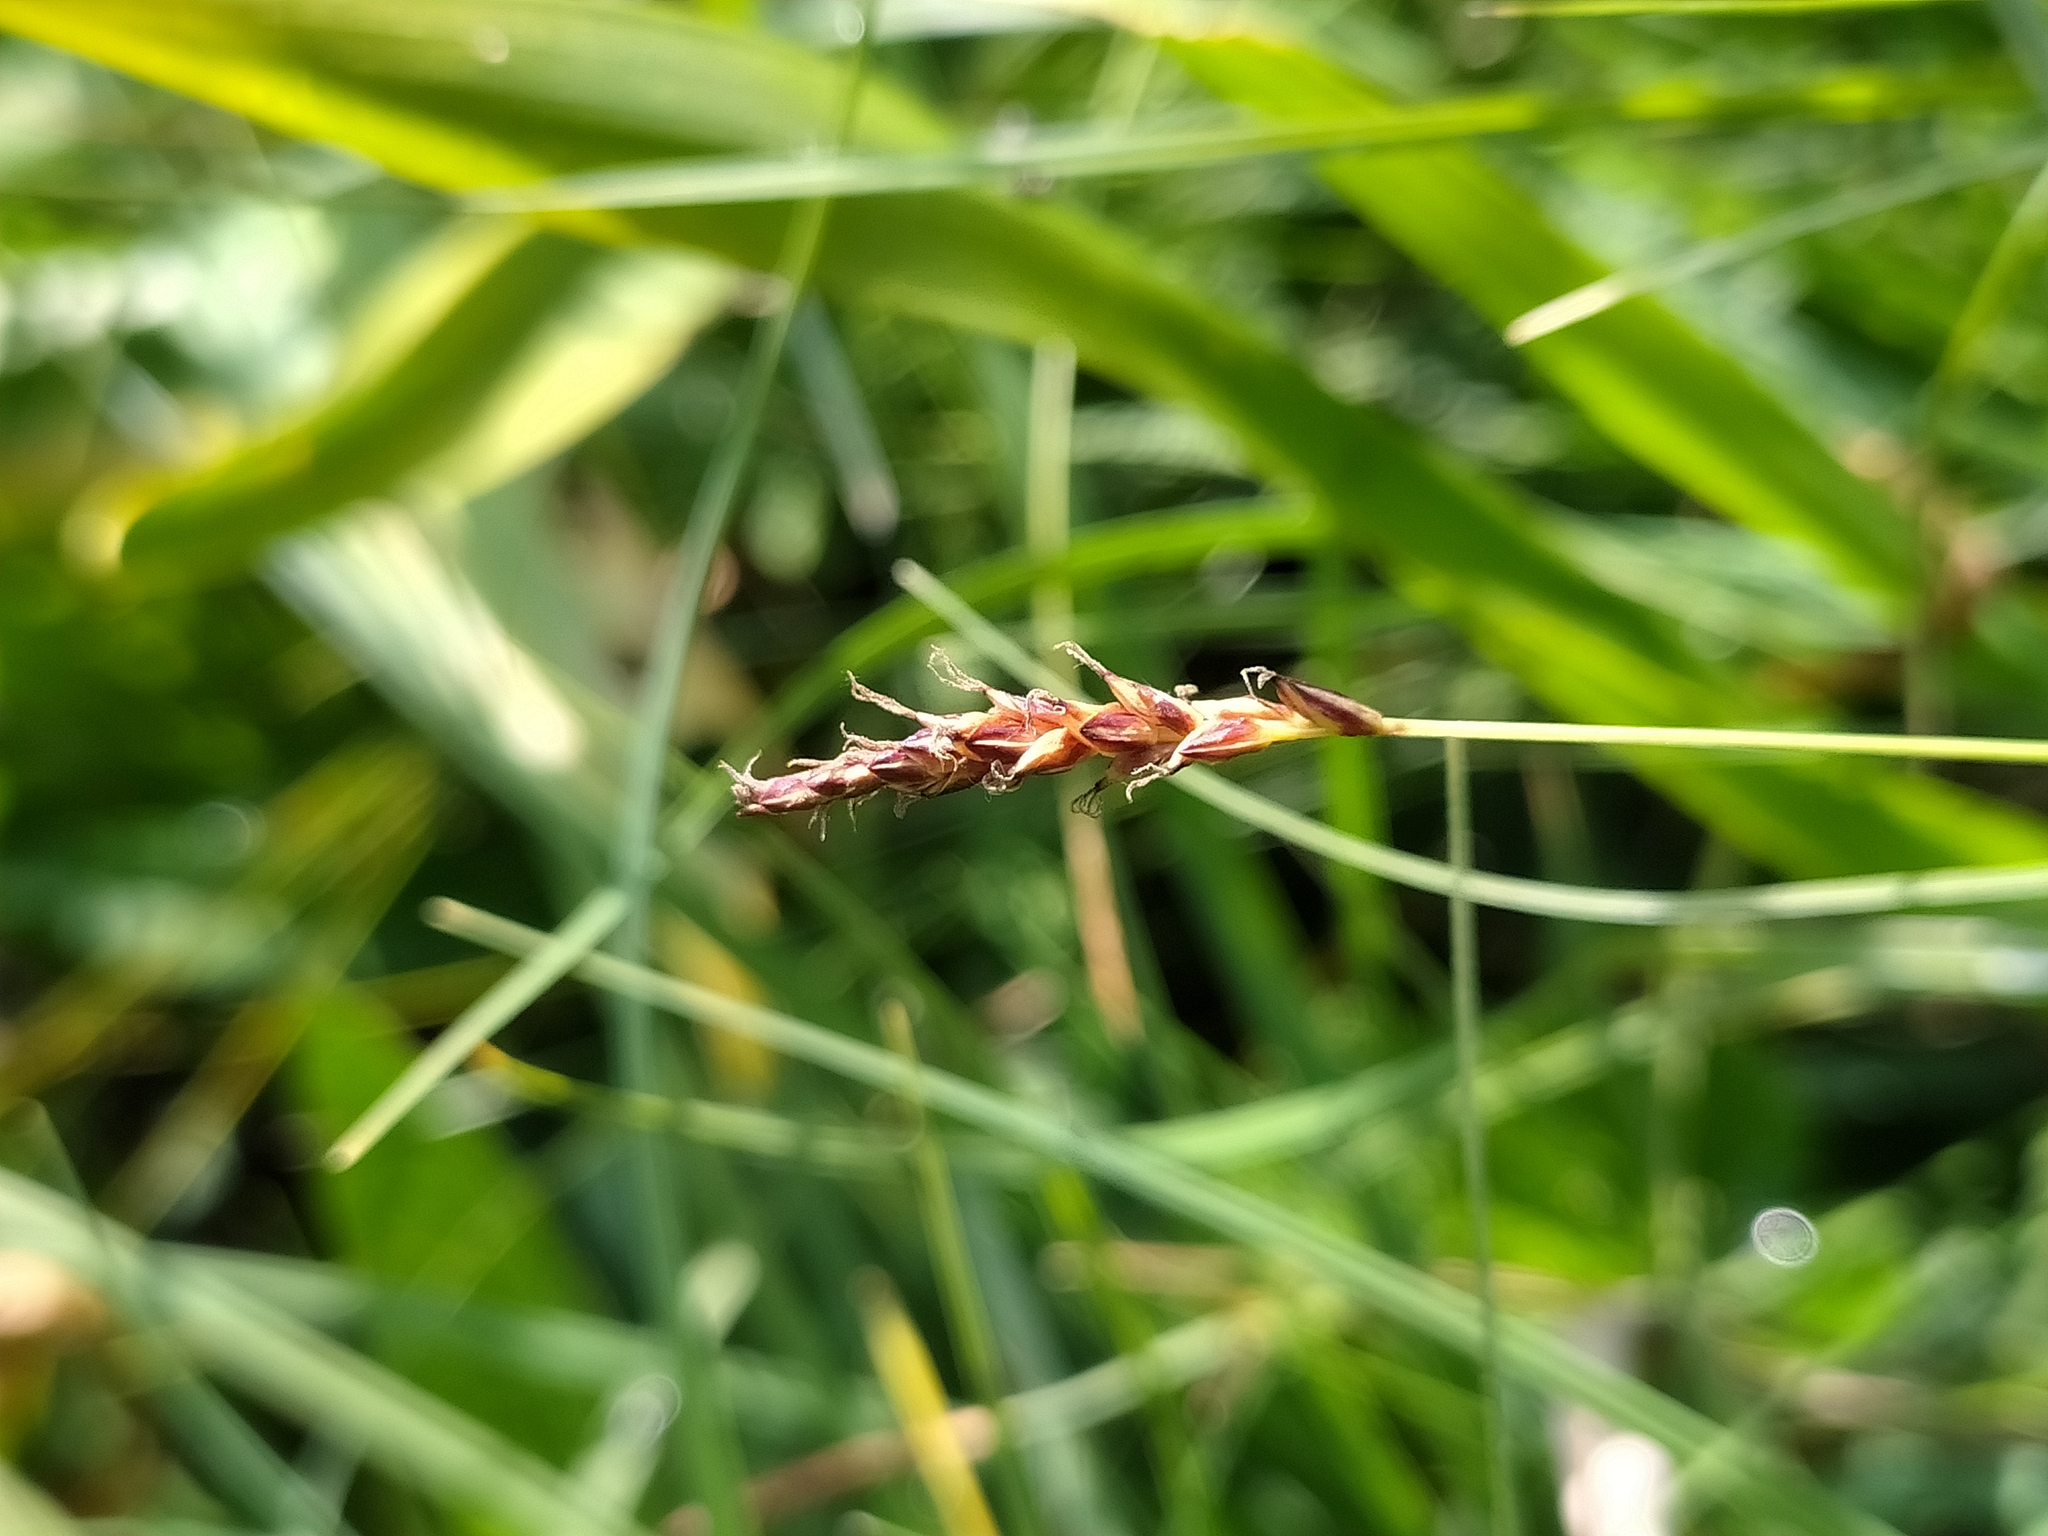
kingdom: Plantae
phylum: Tracheophyta
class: Liliopsida
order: Poales
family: Cyperaceae
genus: Carex
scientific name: Carex davalliana
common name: Davall's sedge
